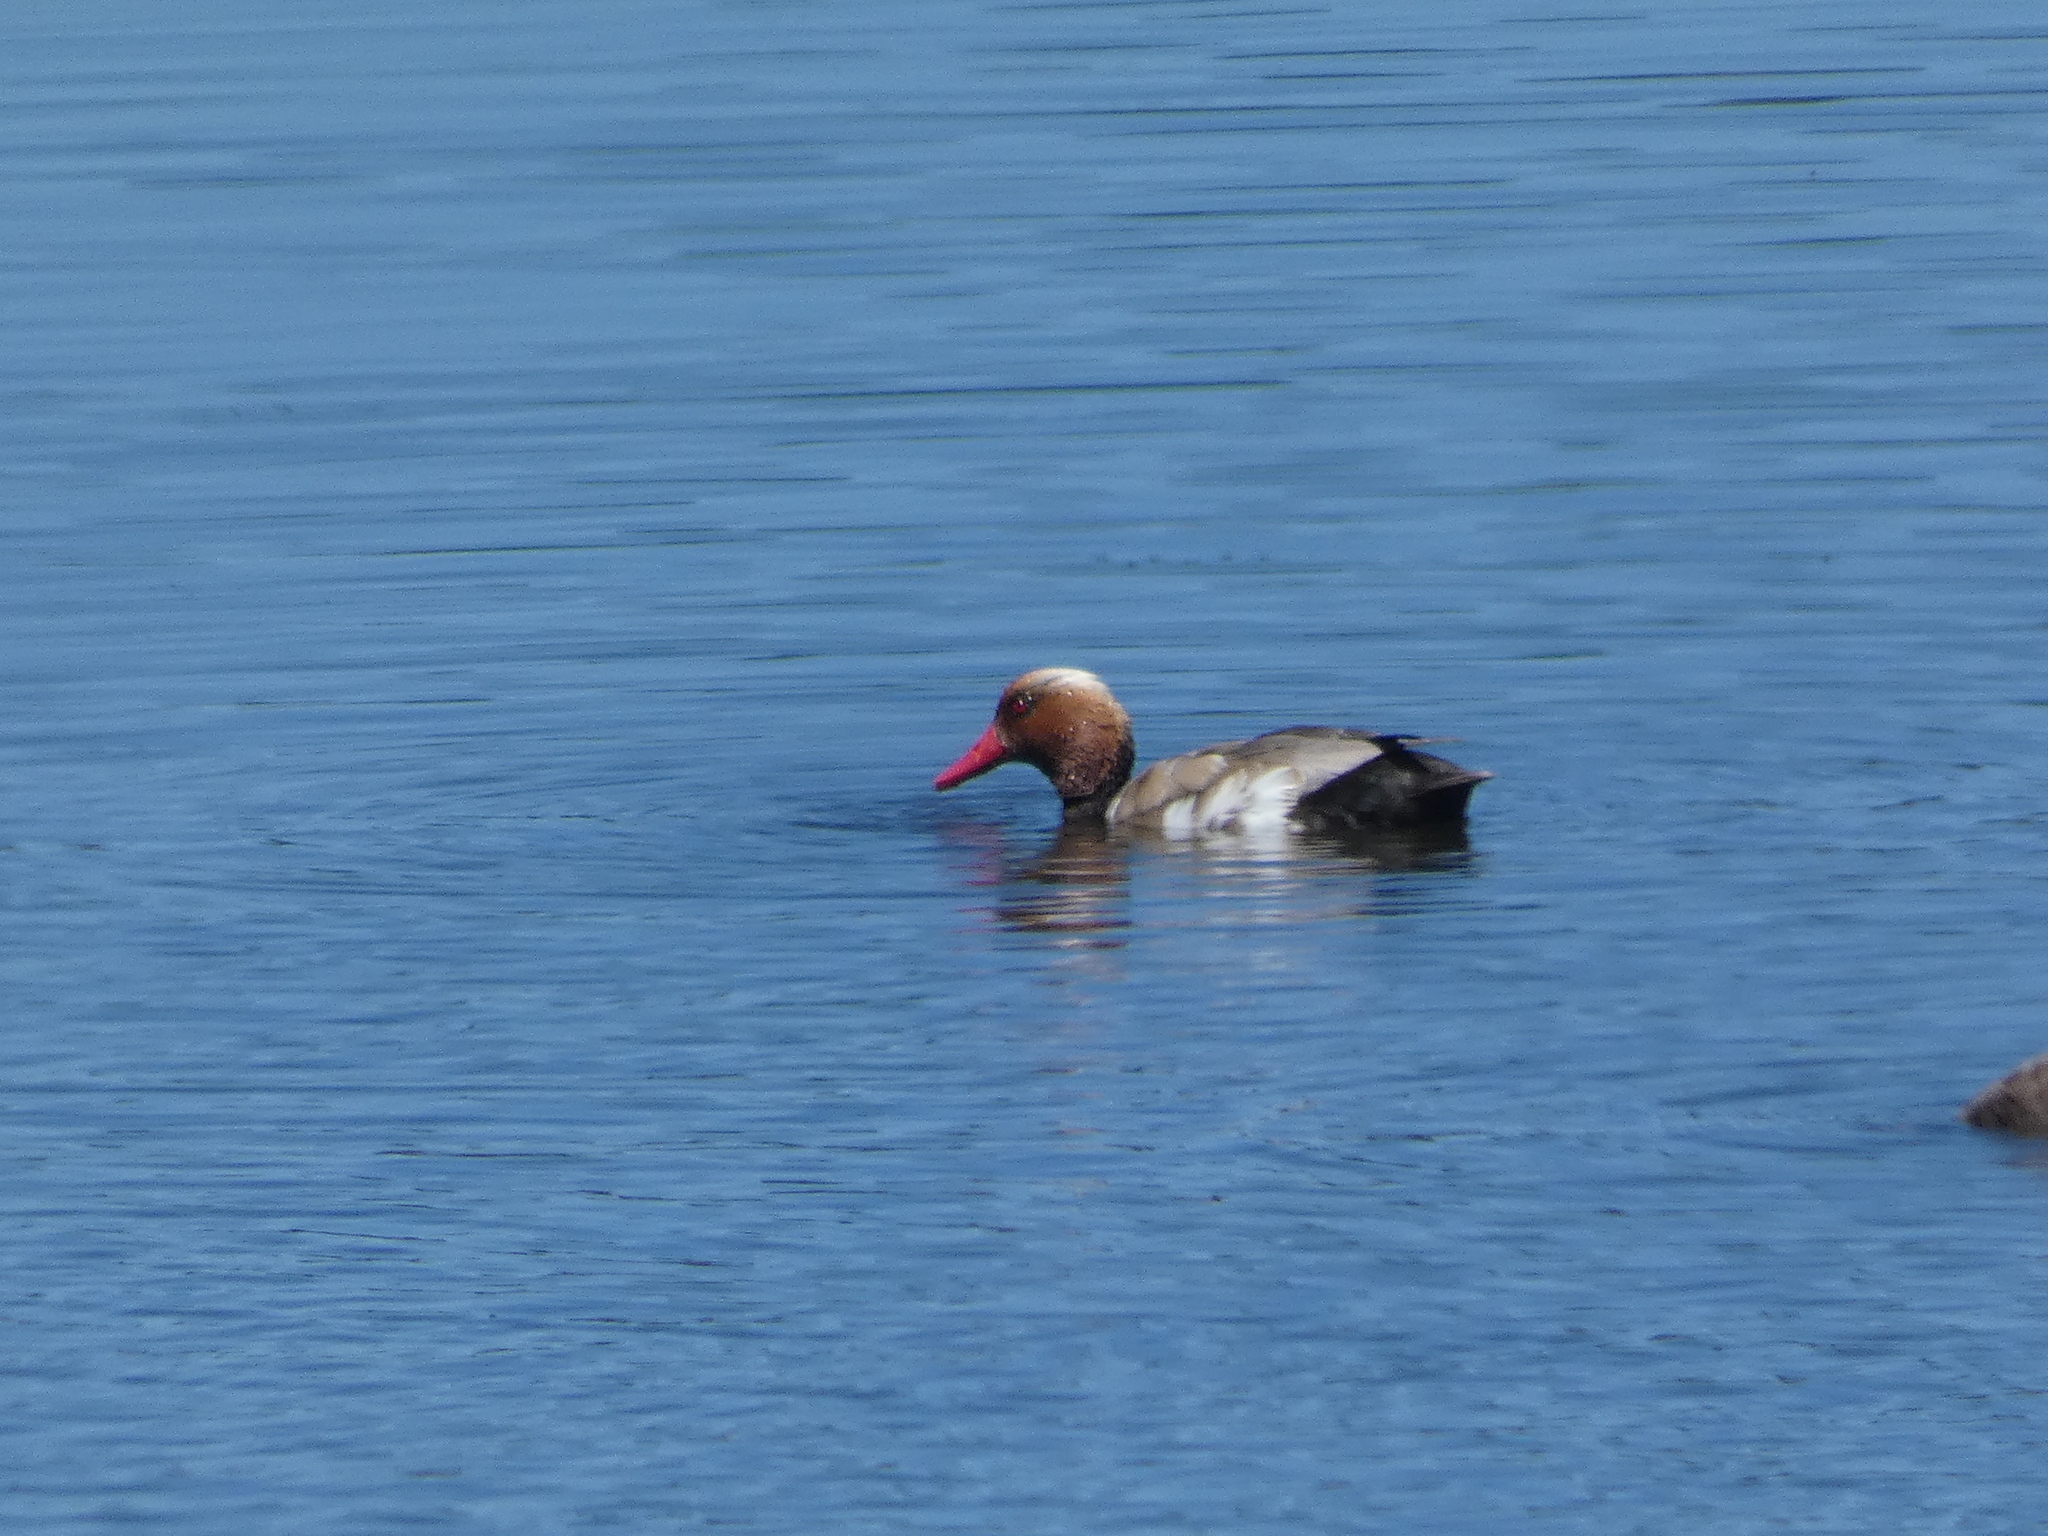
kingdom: Animalia
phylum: Chordata
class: Aves
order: Anseriformes
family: Anatidae
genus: Netta
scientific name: Netta rufina
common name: Red-crested pochard
